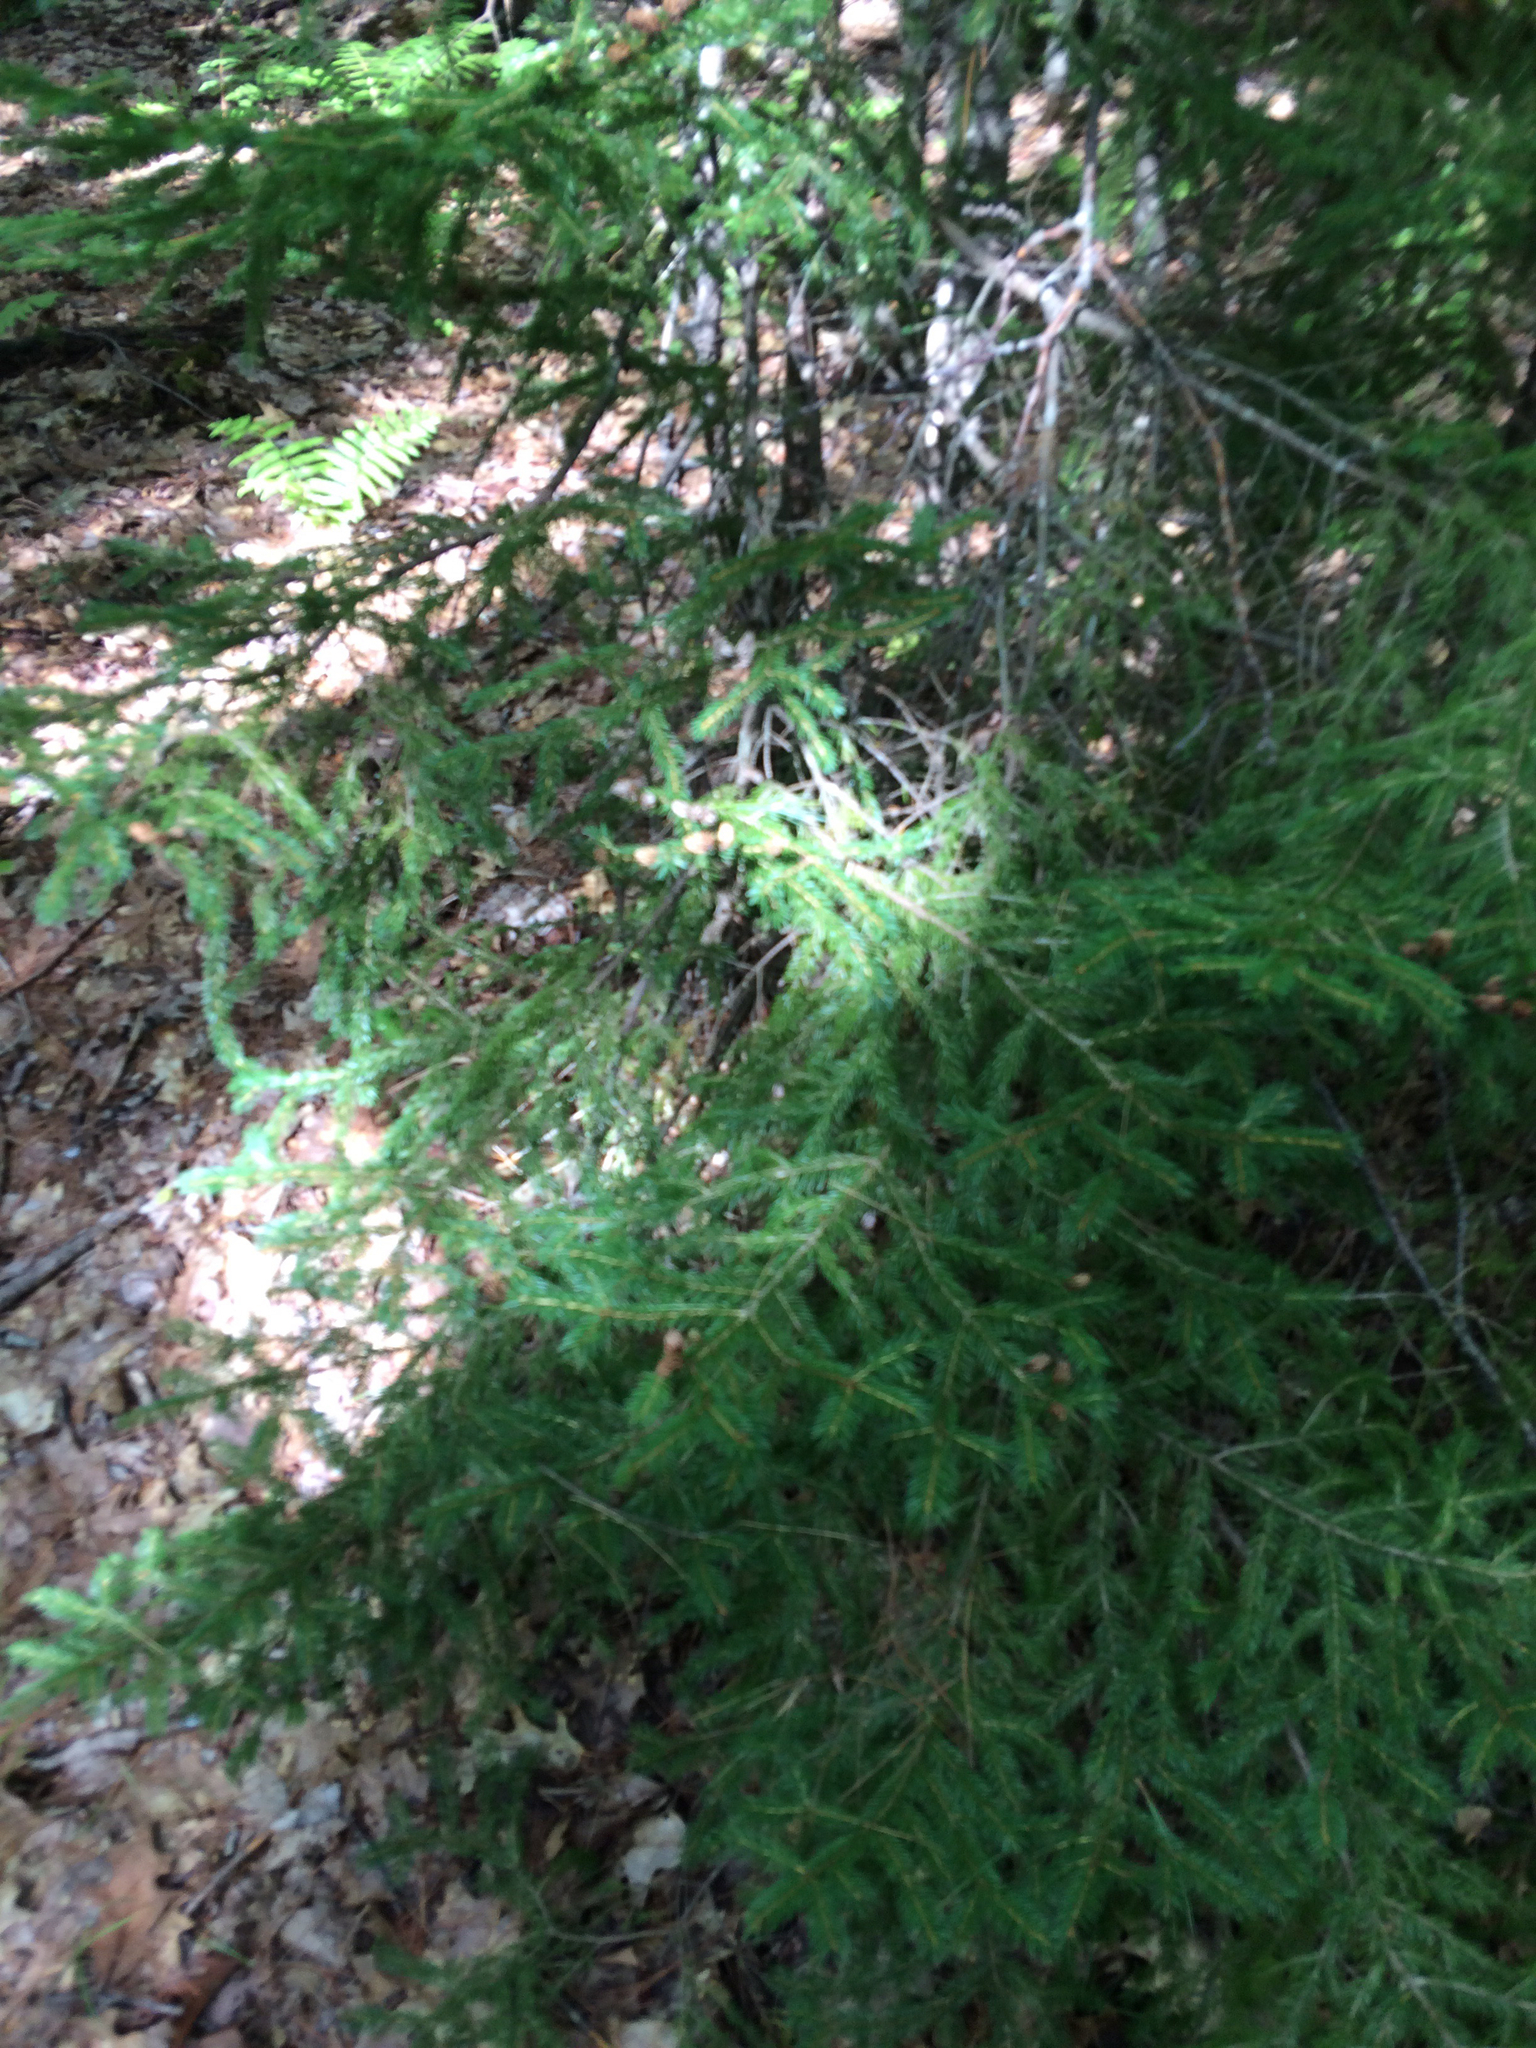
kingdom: Plantae
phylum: Tracheophyta
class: Pinopsida
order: Pinales
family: Pinaceae
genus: Picea
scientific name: Picea rubens
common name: Red spruce
